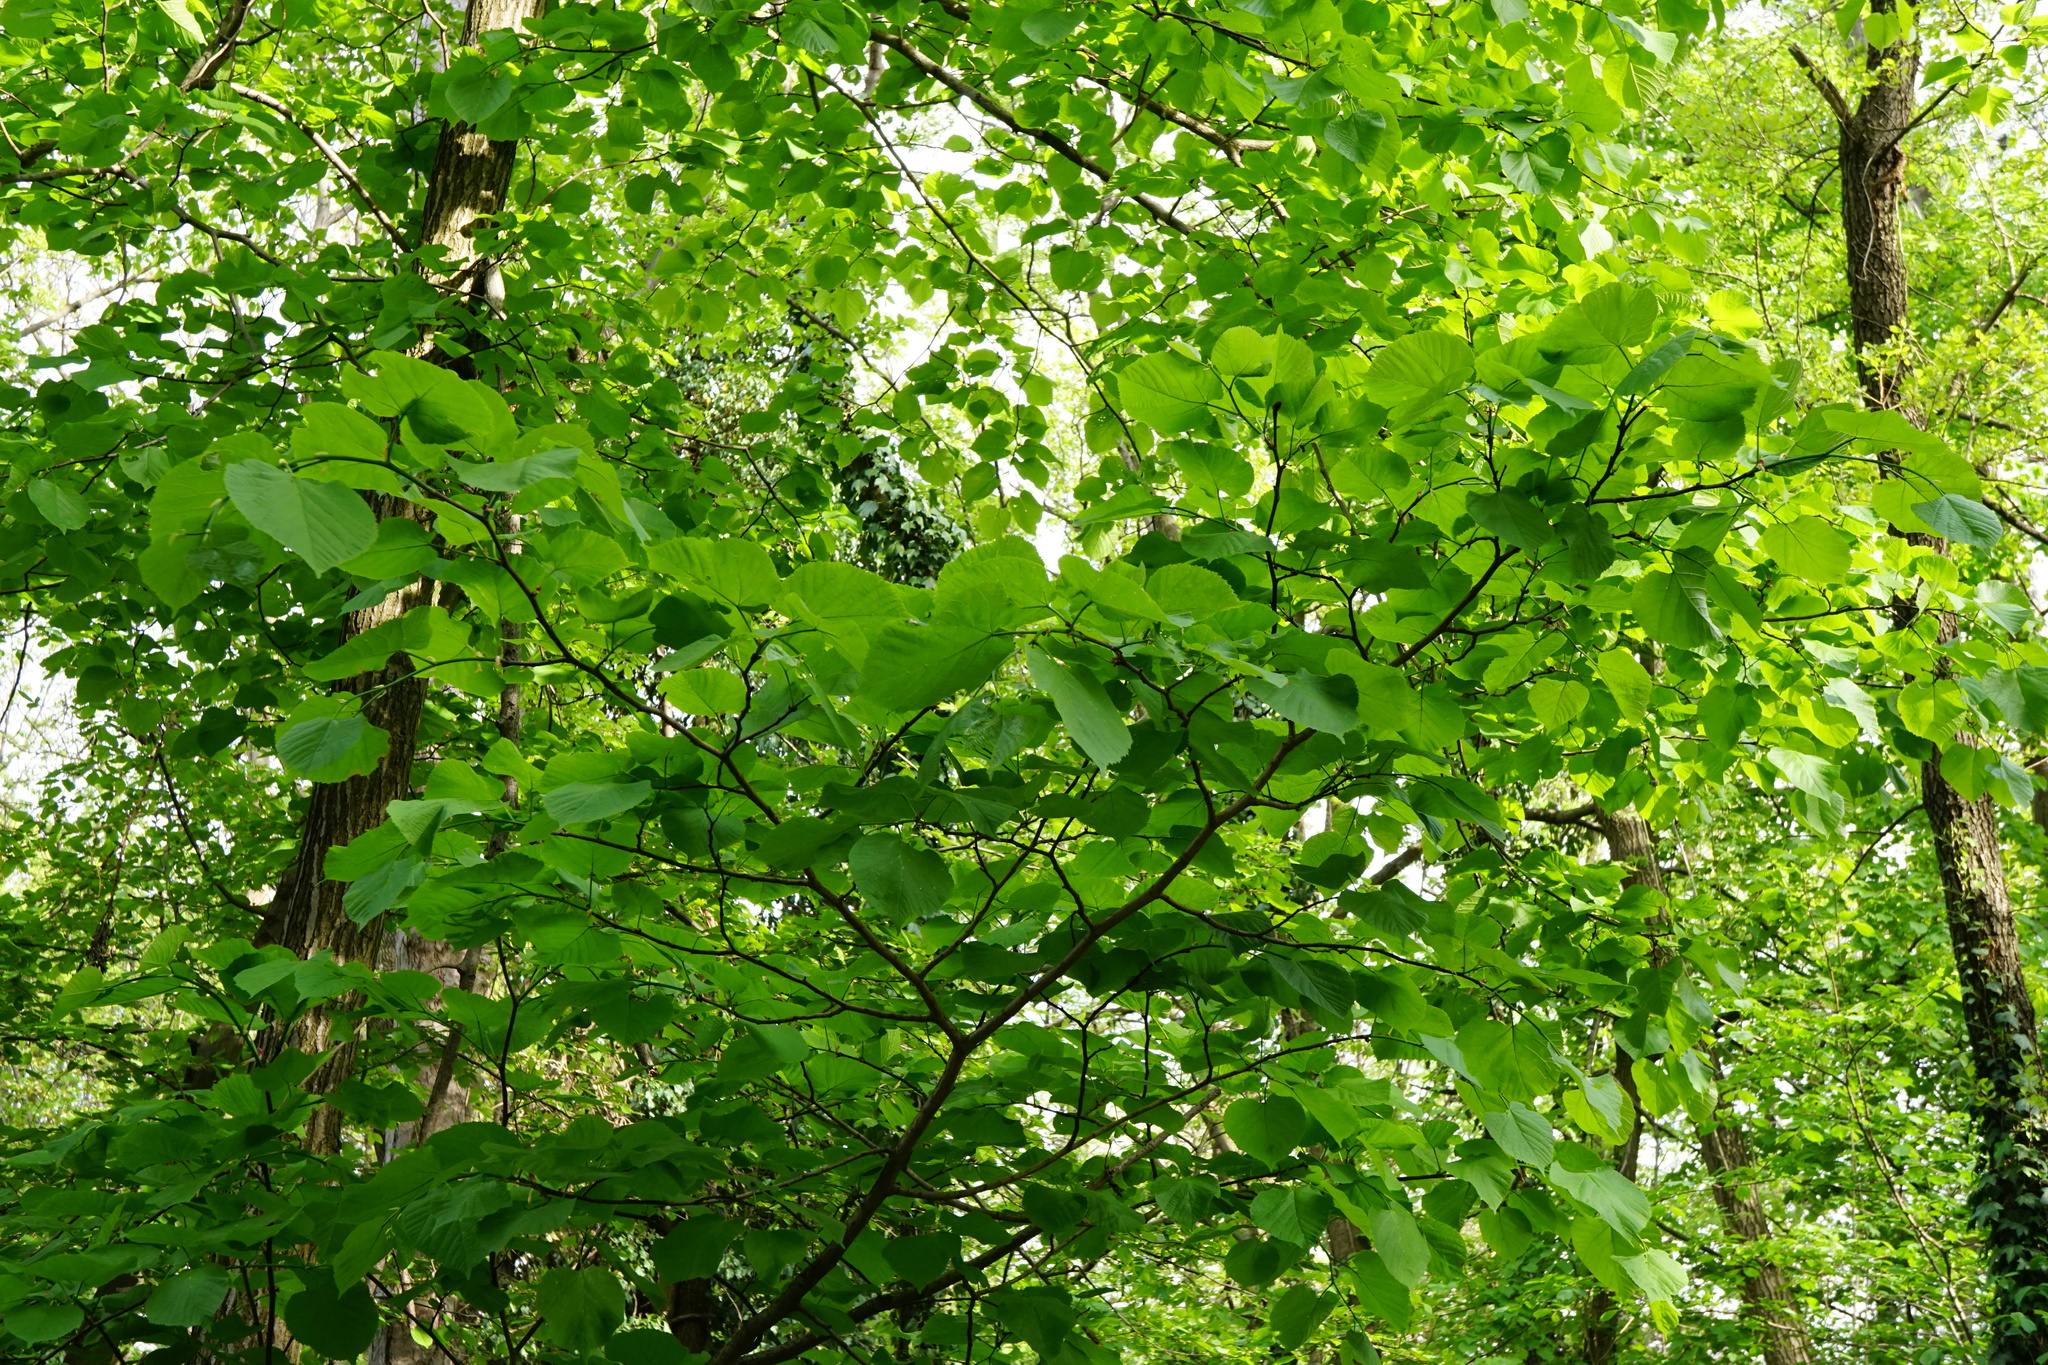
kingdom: Plantae
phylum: Tracheophyta
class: Magnoliopsida
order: Malvales
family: Malvaceae
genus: Tilia
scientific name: Tilia platyphyllos
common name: Large-leaved lime
